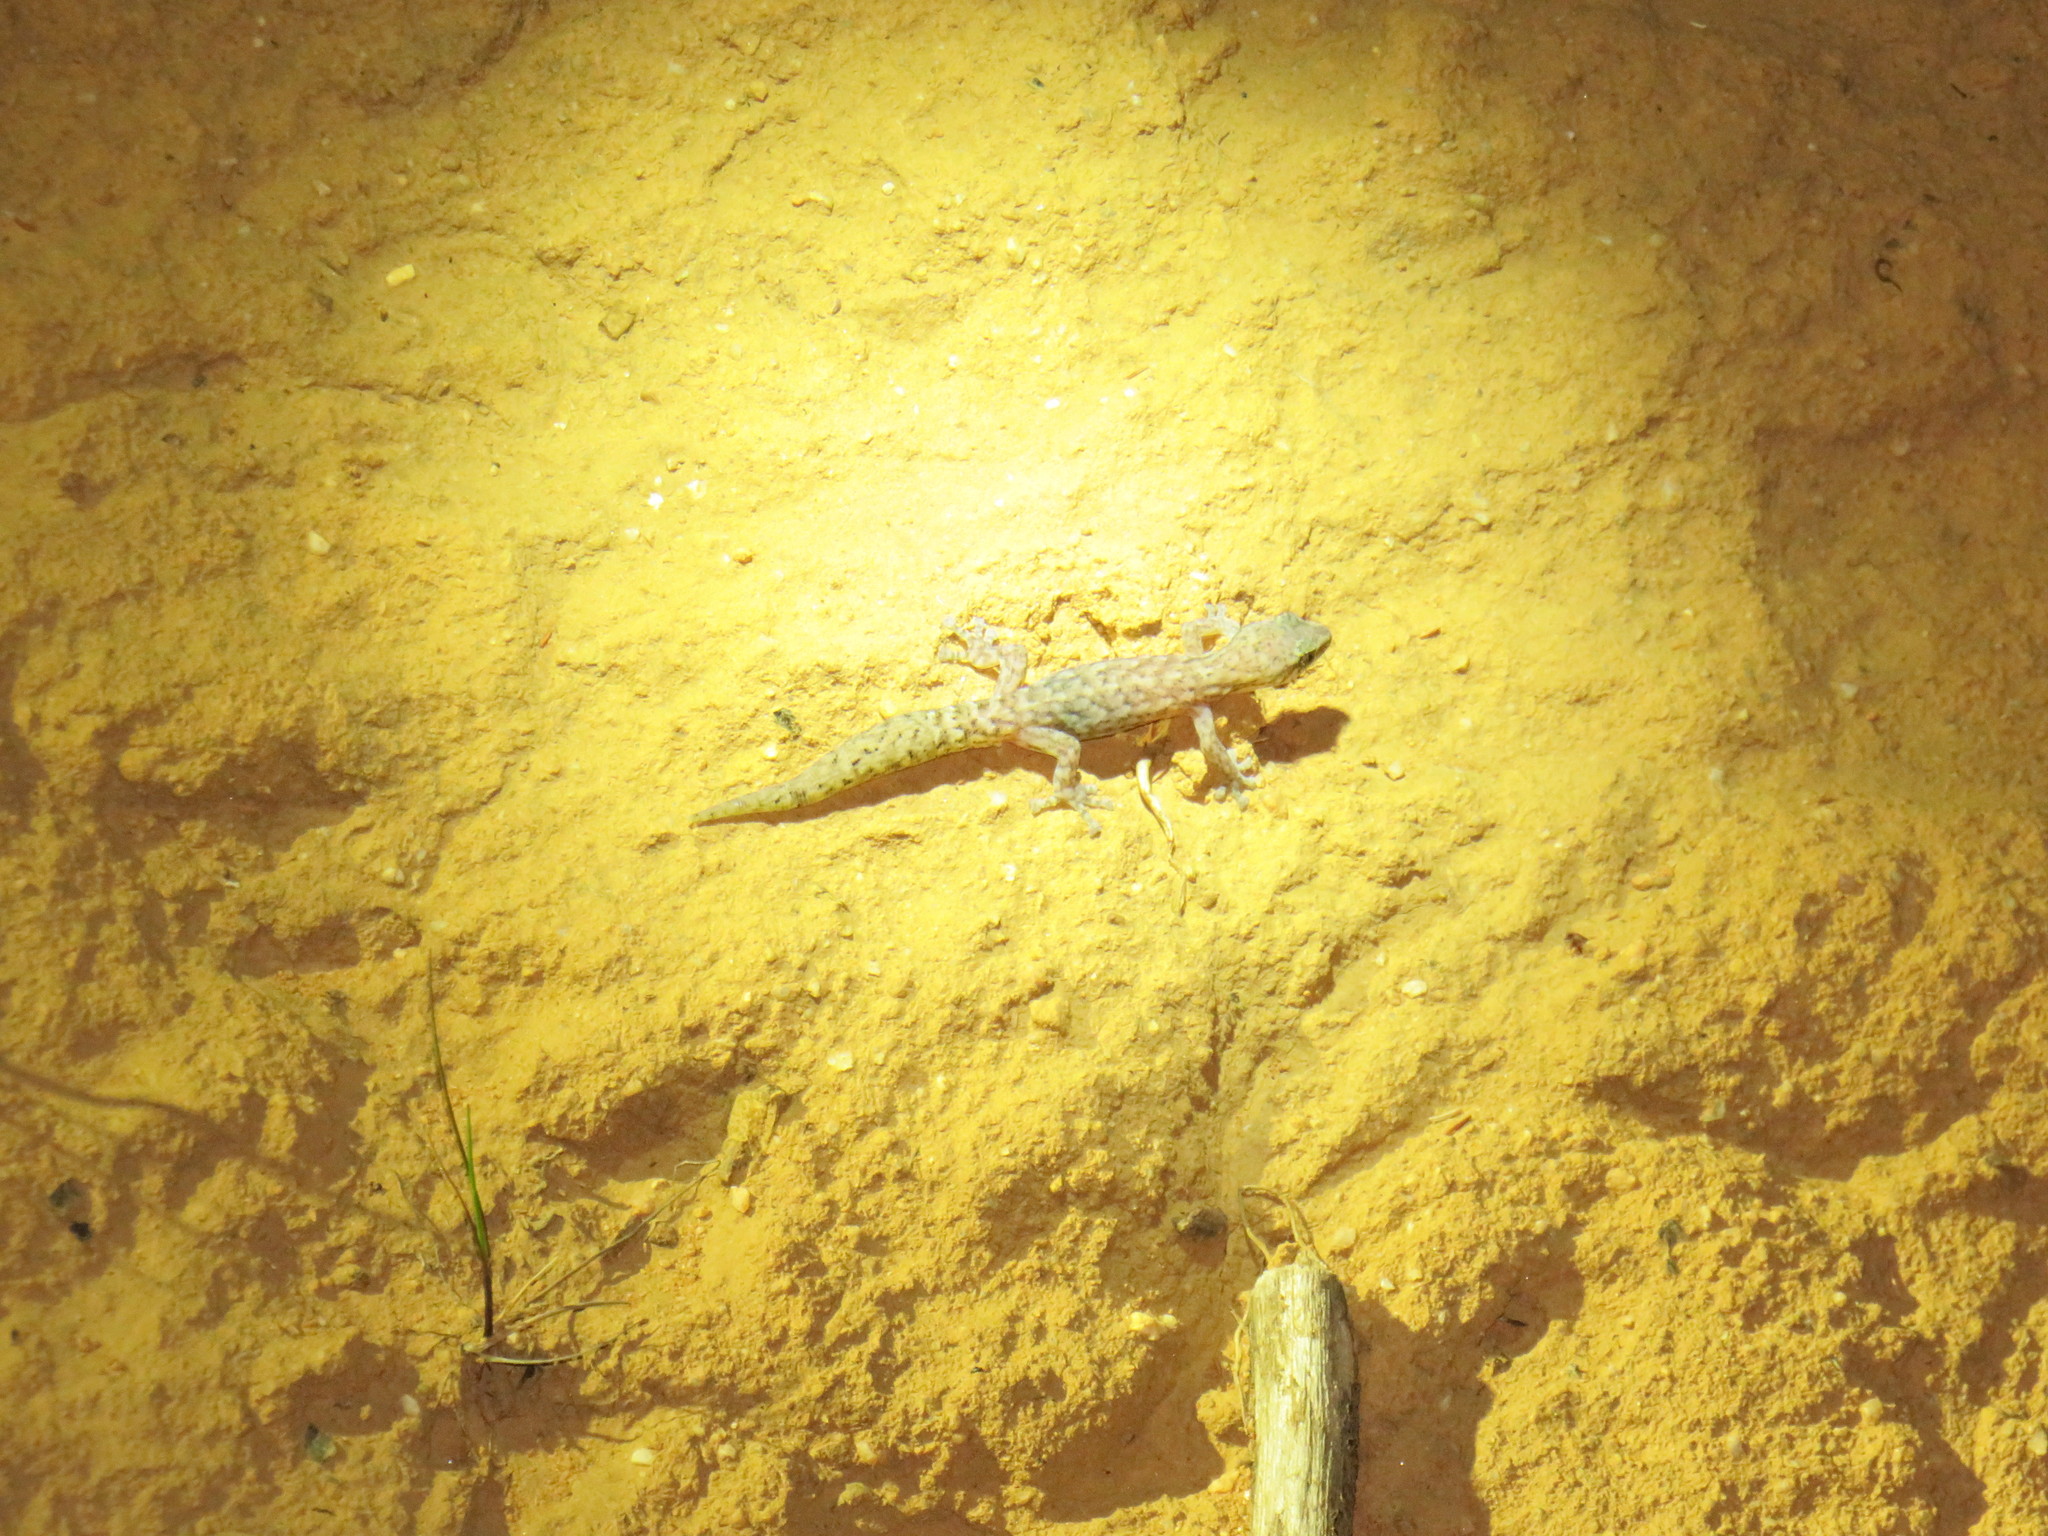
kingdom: Animalia
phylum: Chordata
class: Squamata
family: Gekkonidae
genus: Afrogecko
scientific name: Afrogecko porphyreus
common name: Marbled leaf-toed gecko
